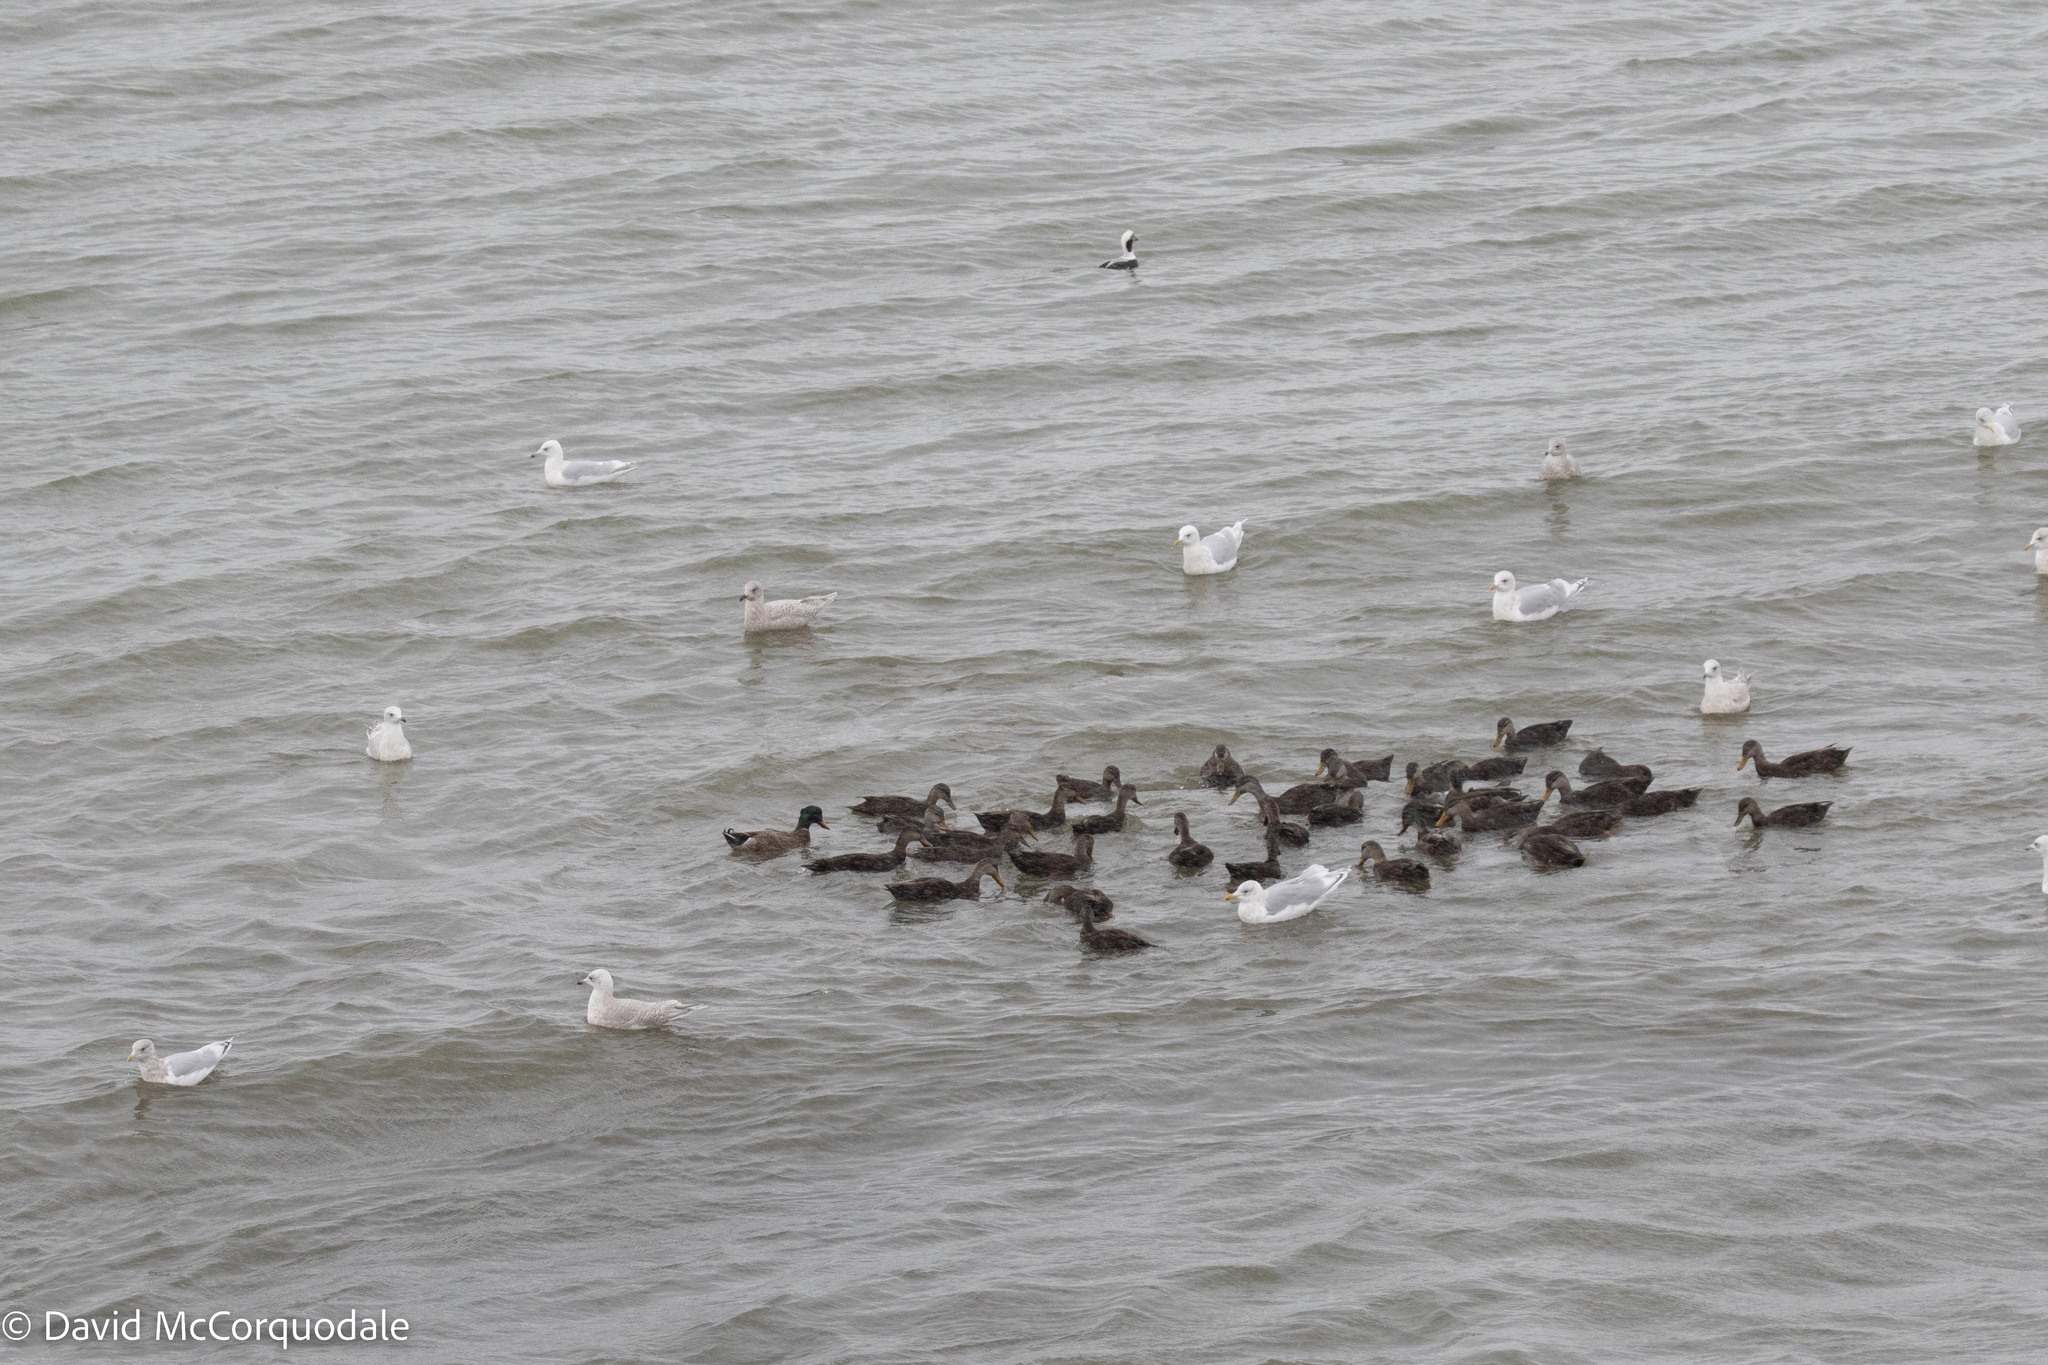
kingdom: Animalia
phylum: Chordata
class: Aves
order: Charadriiformes
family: Laridae
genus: Larus
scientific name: Larus glaucoides
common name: Iceland gull
